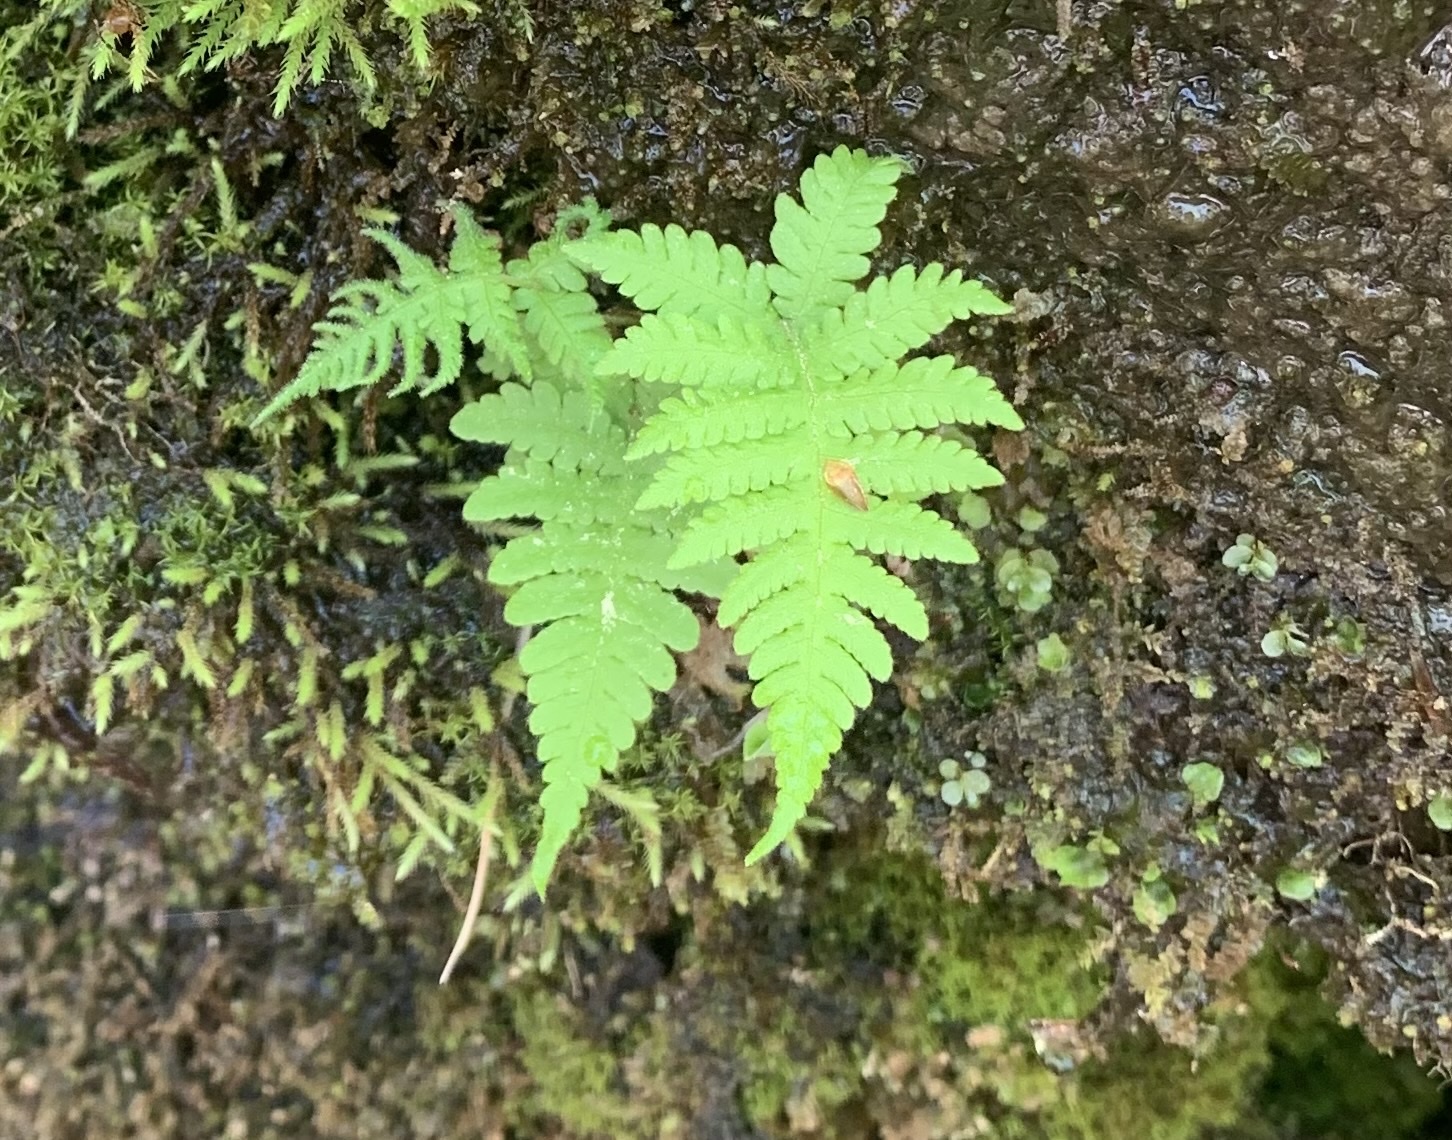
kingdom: Plantae
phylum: Tracheophyta
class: Polypodiopsida
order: Polypodiales
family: Thelypteridaceae
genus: Phegopteris
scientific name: Phegopteris connectilis
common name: Beech fern
